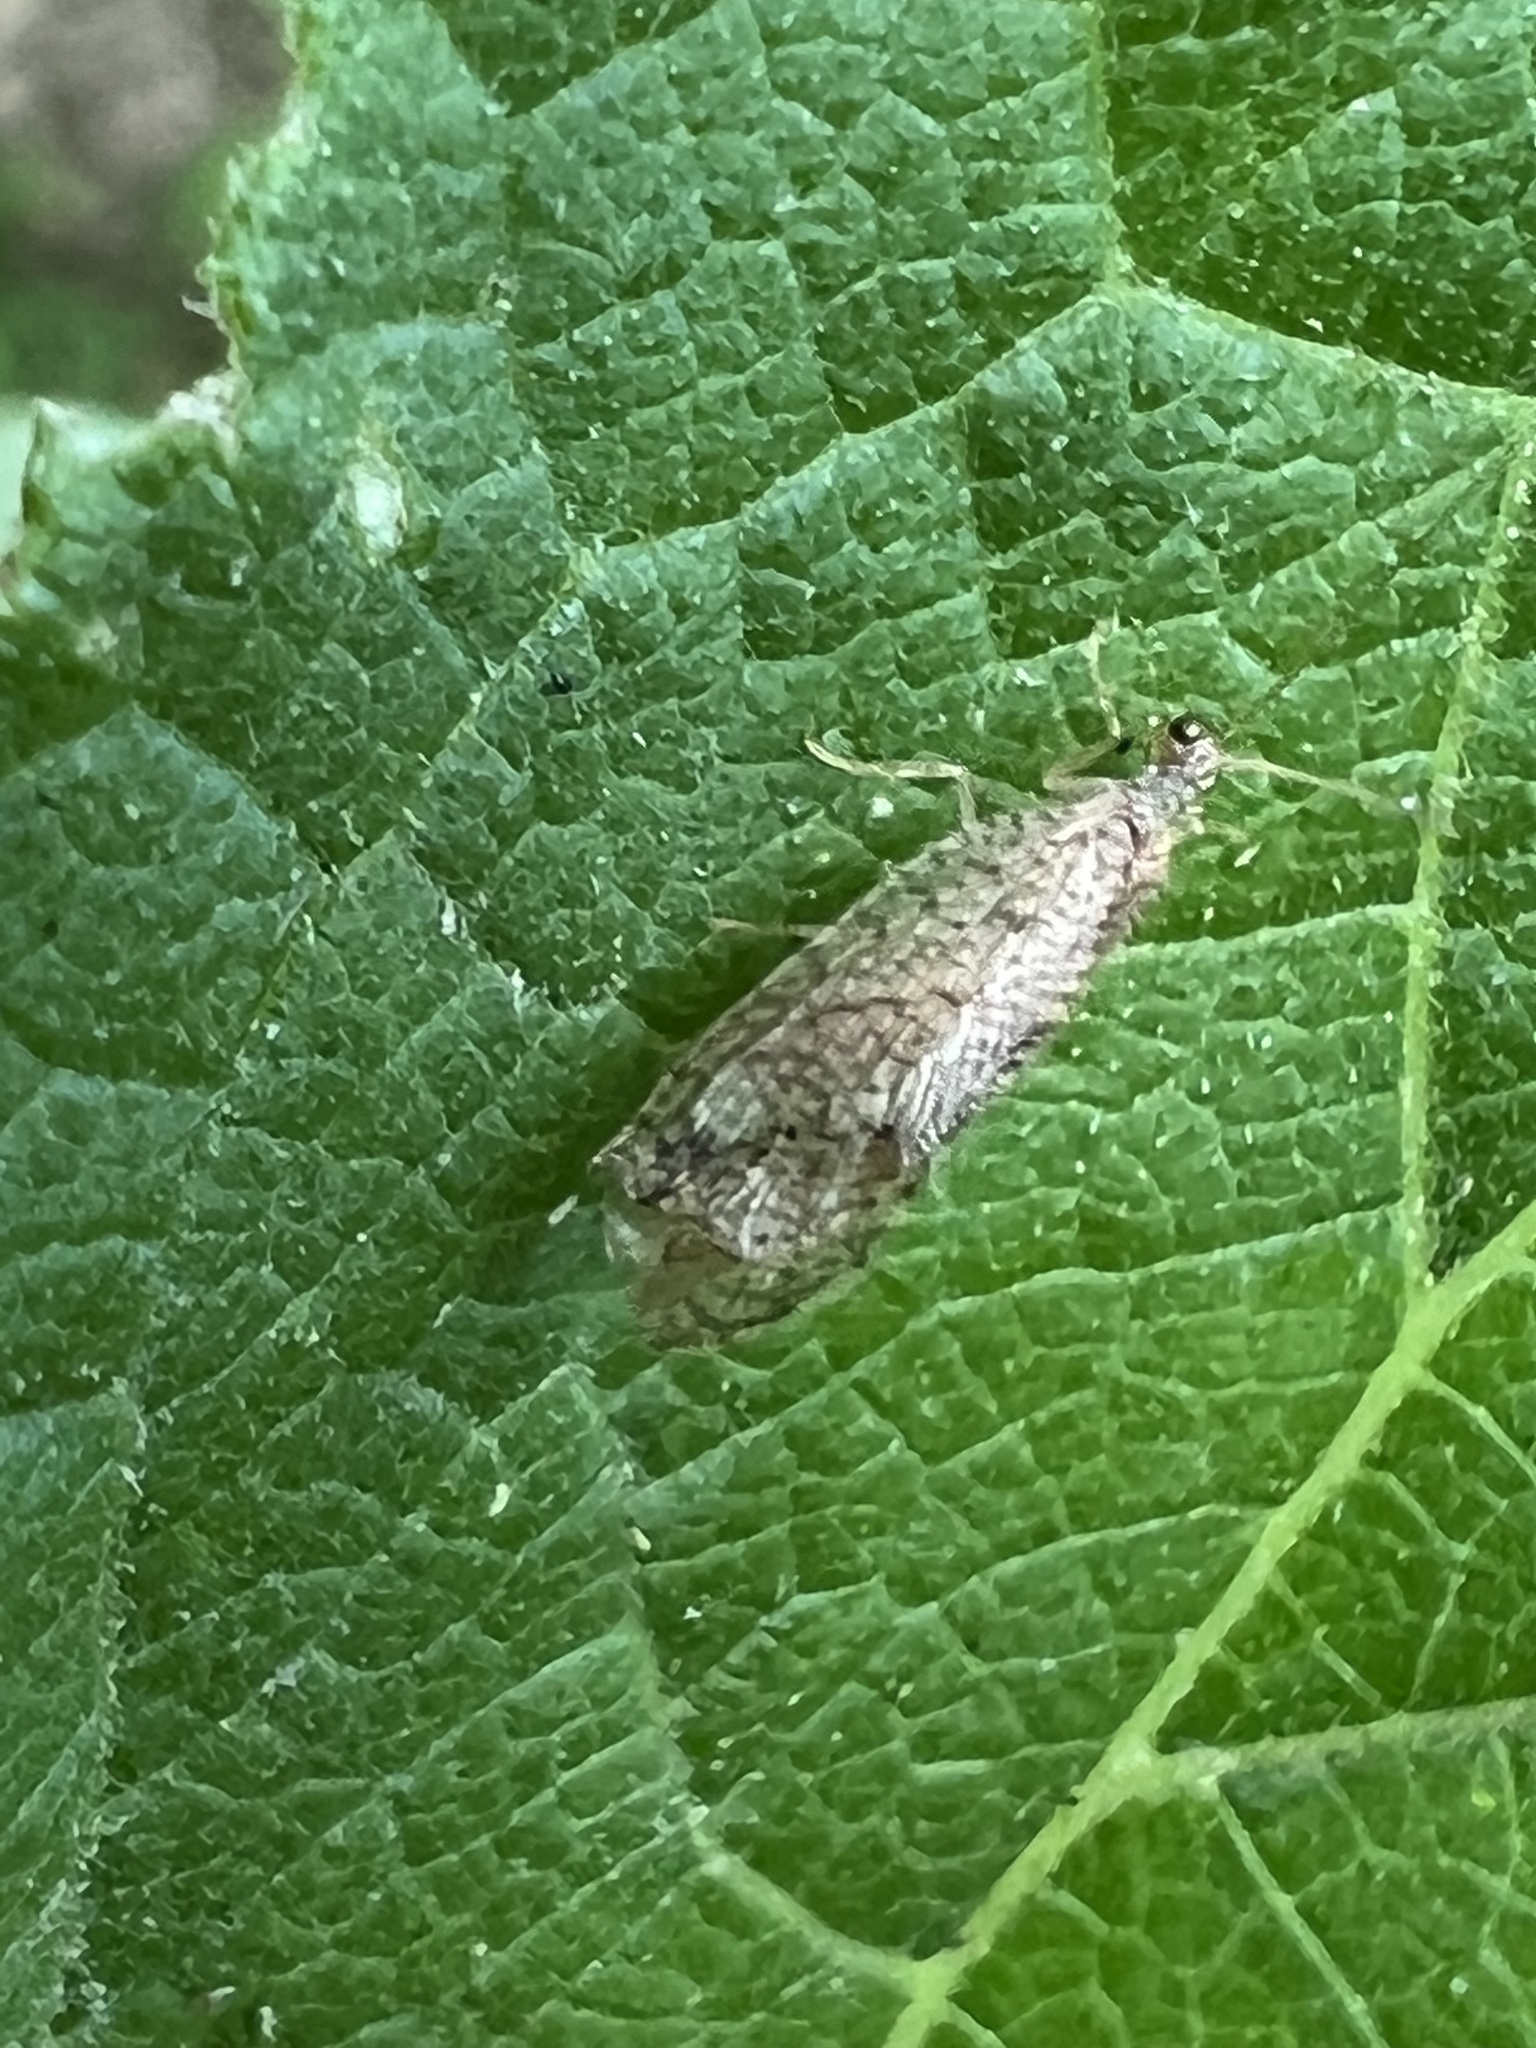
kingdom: Animalia
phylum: Arthropoda
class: Insecta
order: Neuroptera
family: Hemerobiidae
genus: Micromus
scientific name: Micromus posticus
